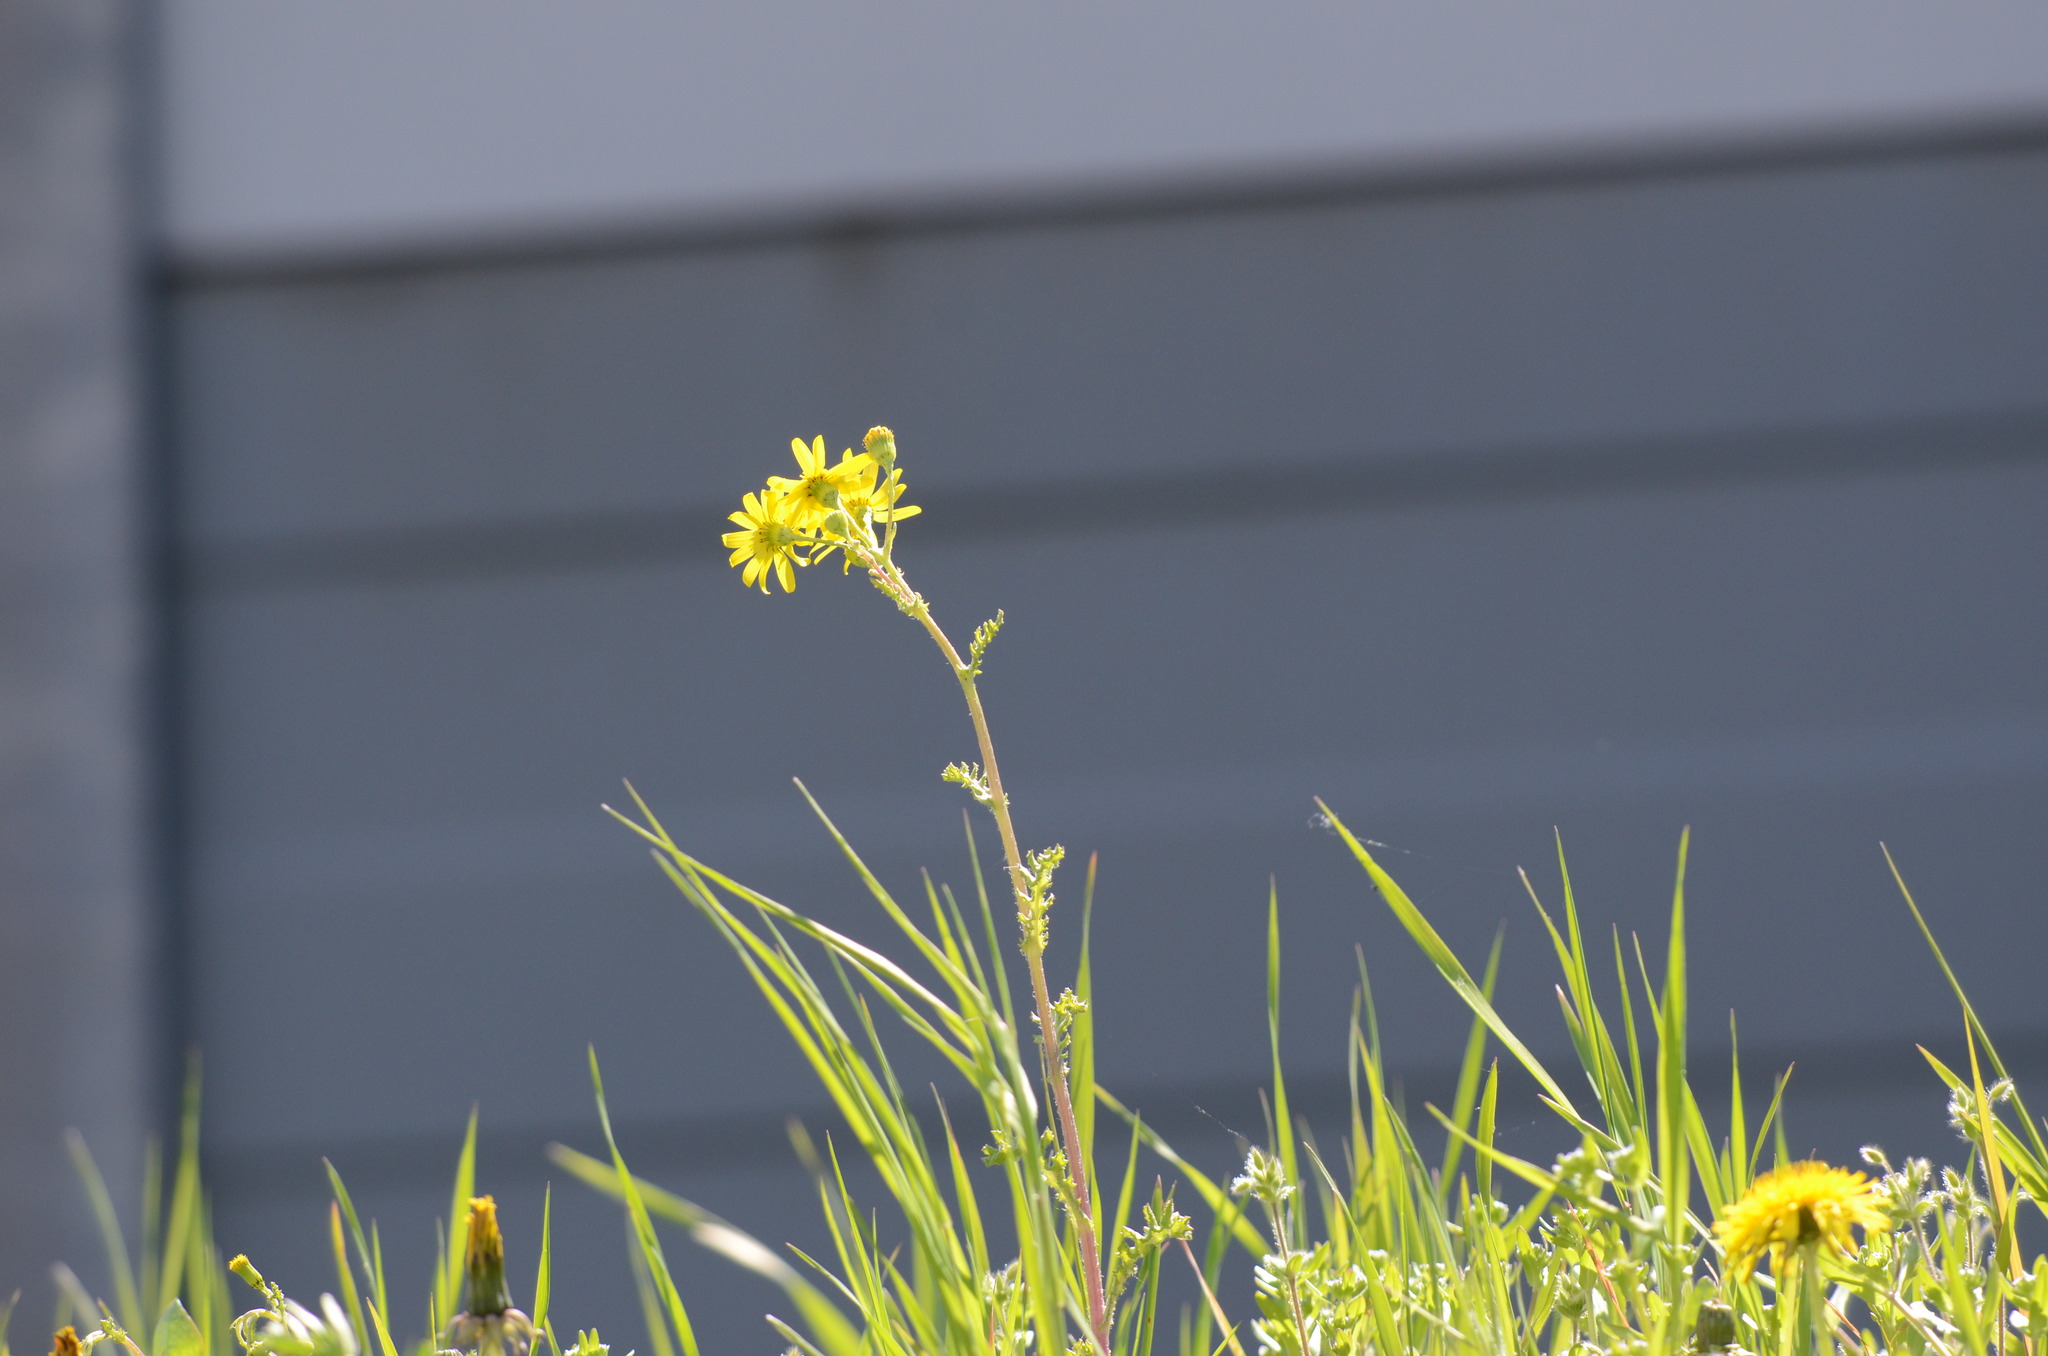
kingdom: Plantae
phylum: Tracheophyta
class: Magnoliopsida
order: Asterales
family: Asteraceae
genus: Senecio
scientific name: Senecio vernalis
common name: Eastern groundsel
